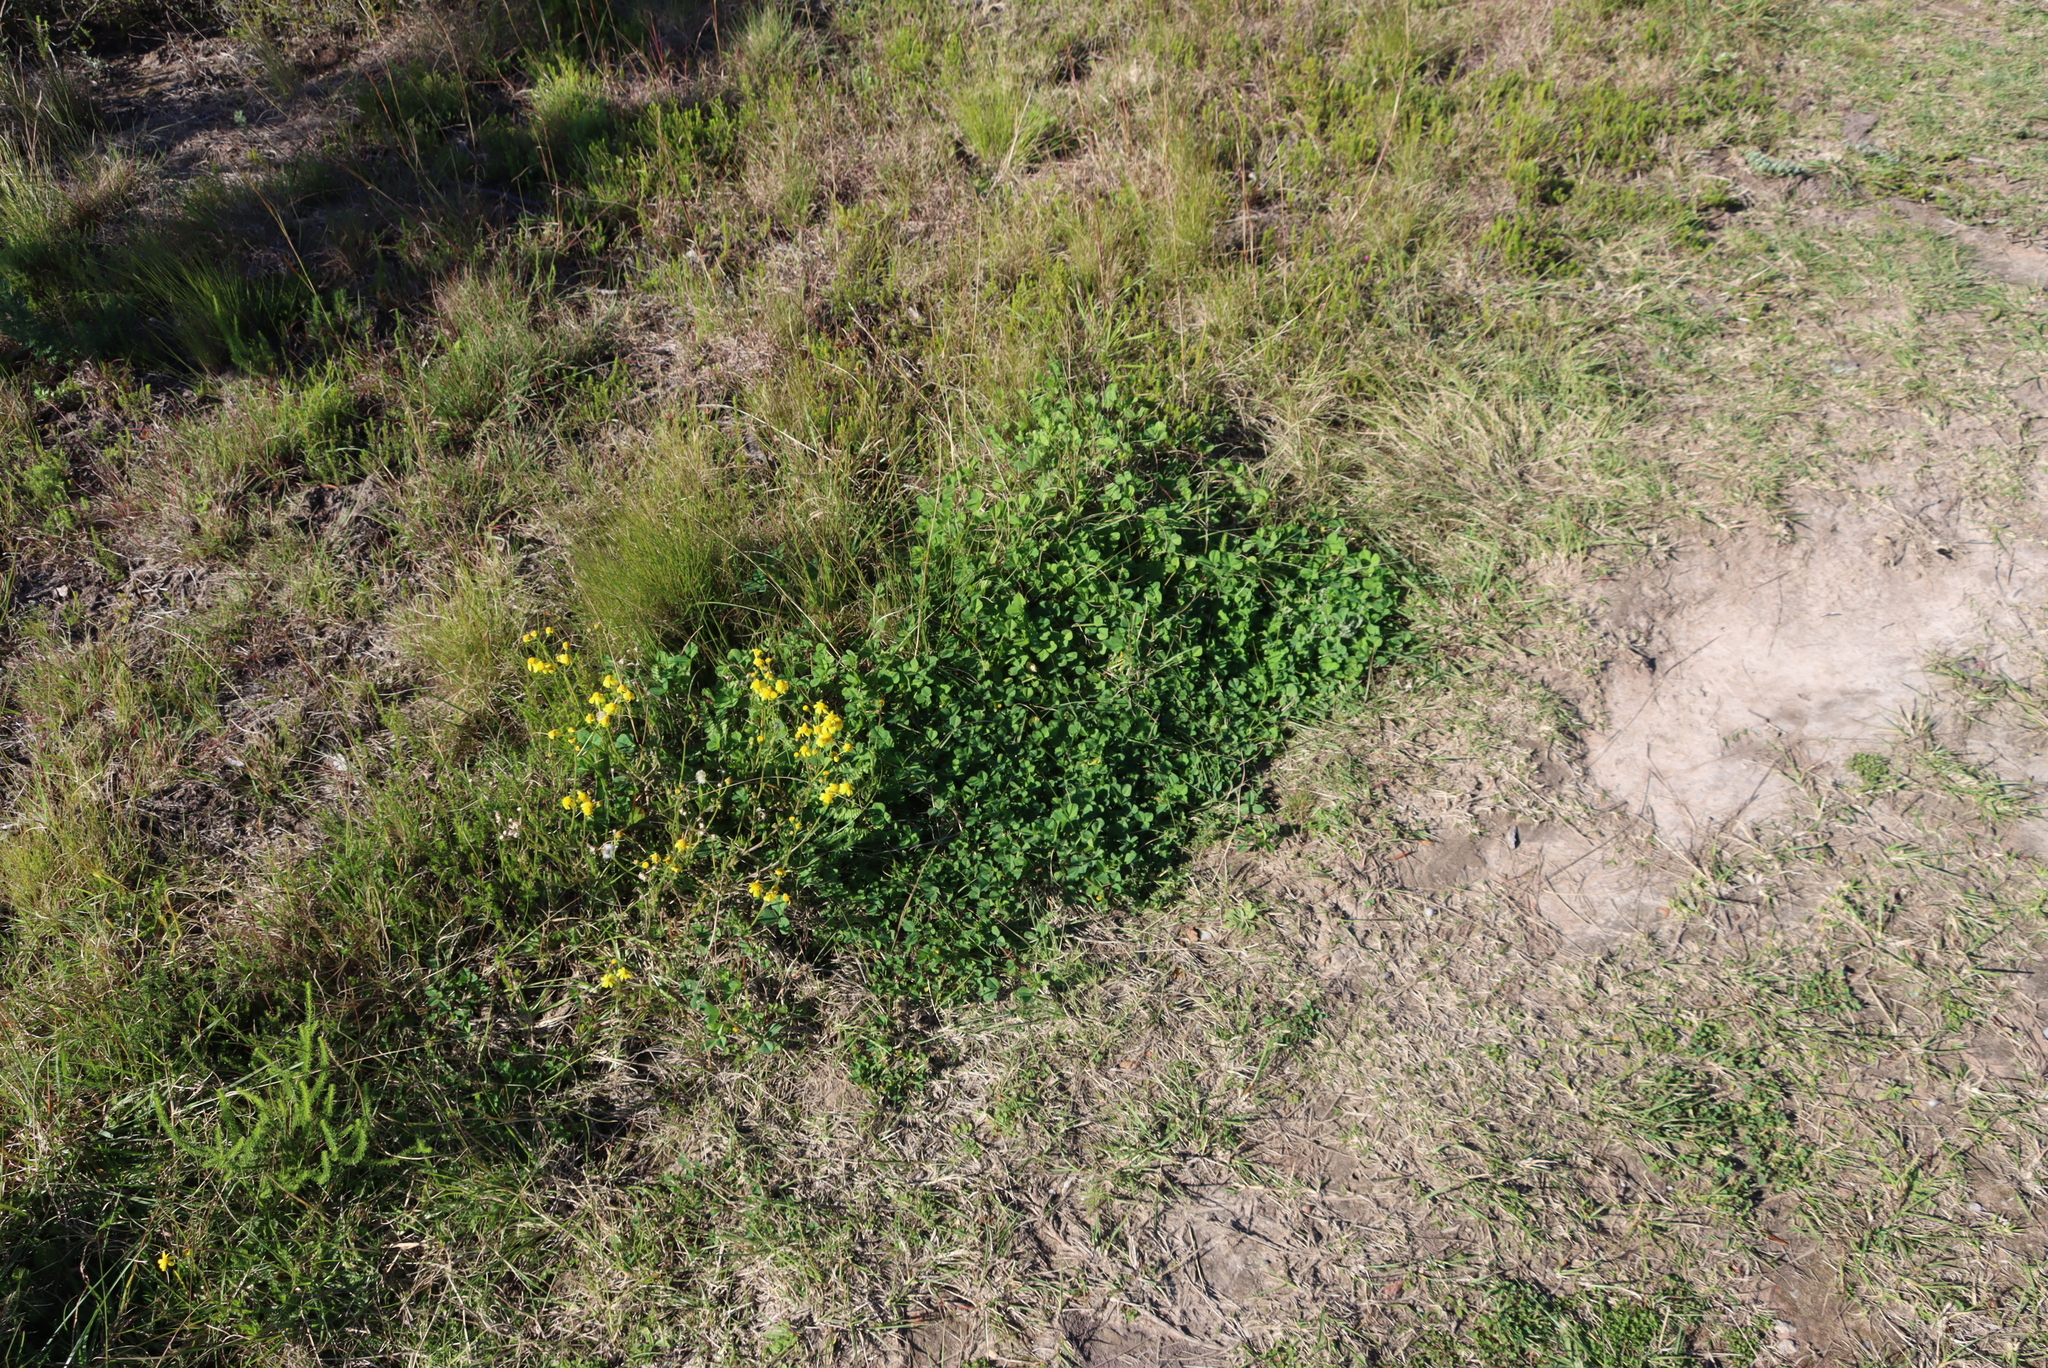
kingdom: Plantae
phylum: Tracheophyta
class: Magnoliopsida
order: Fabales
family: Fabaceae
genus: Medicago
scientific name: Medicago polymorpha
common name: Burclover
